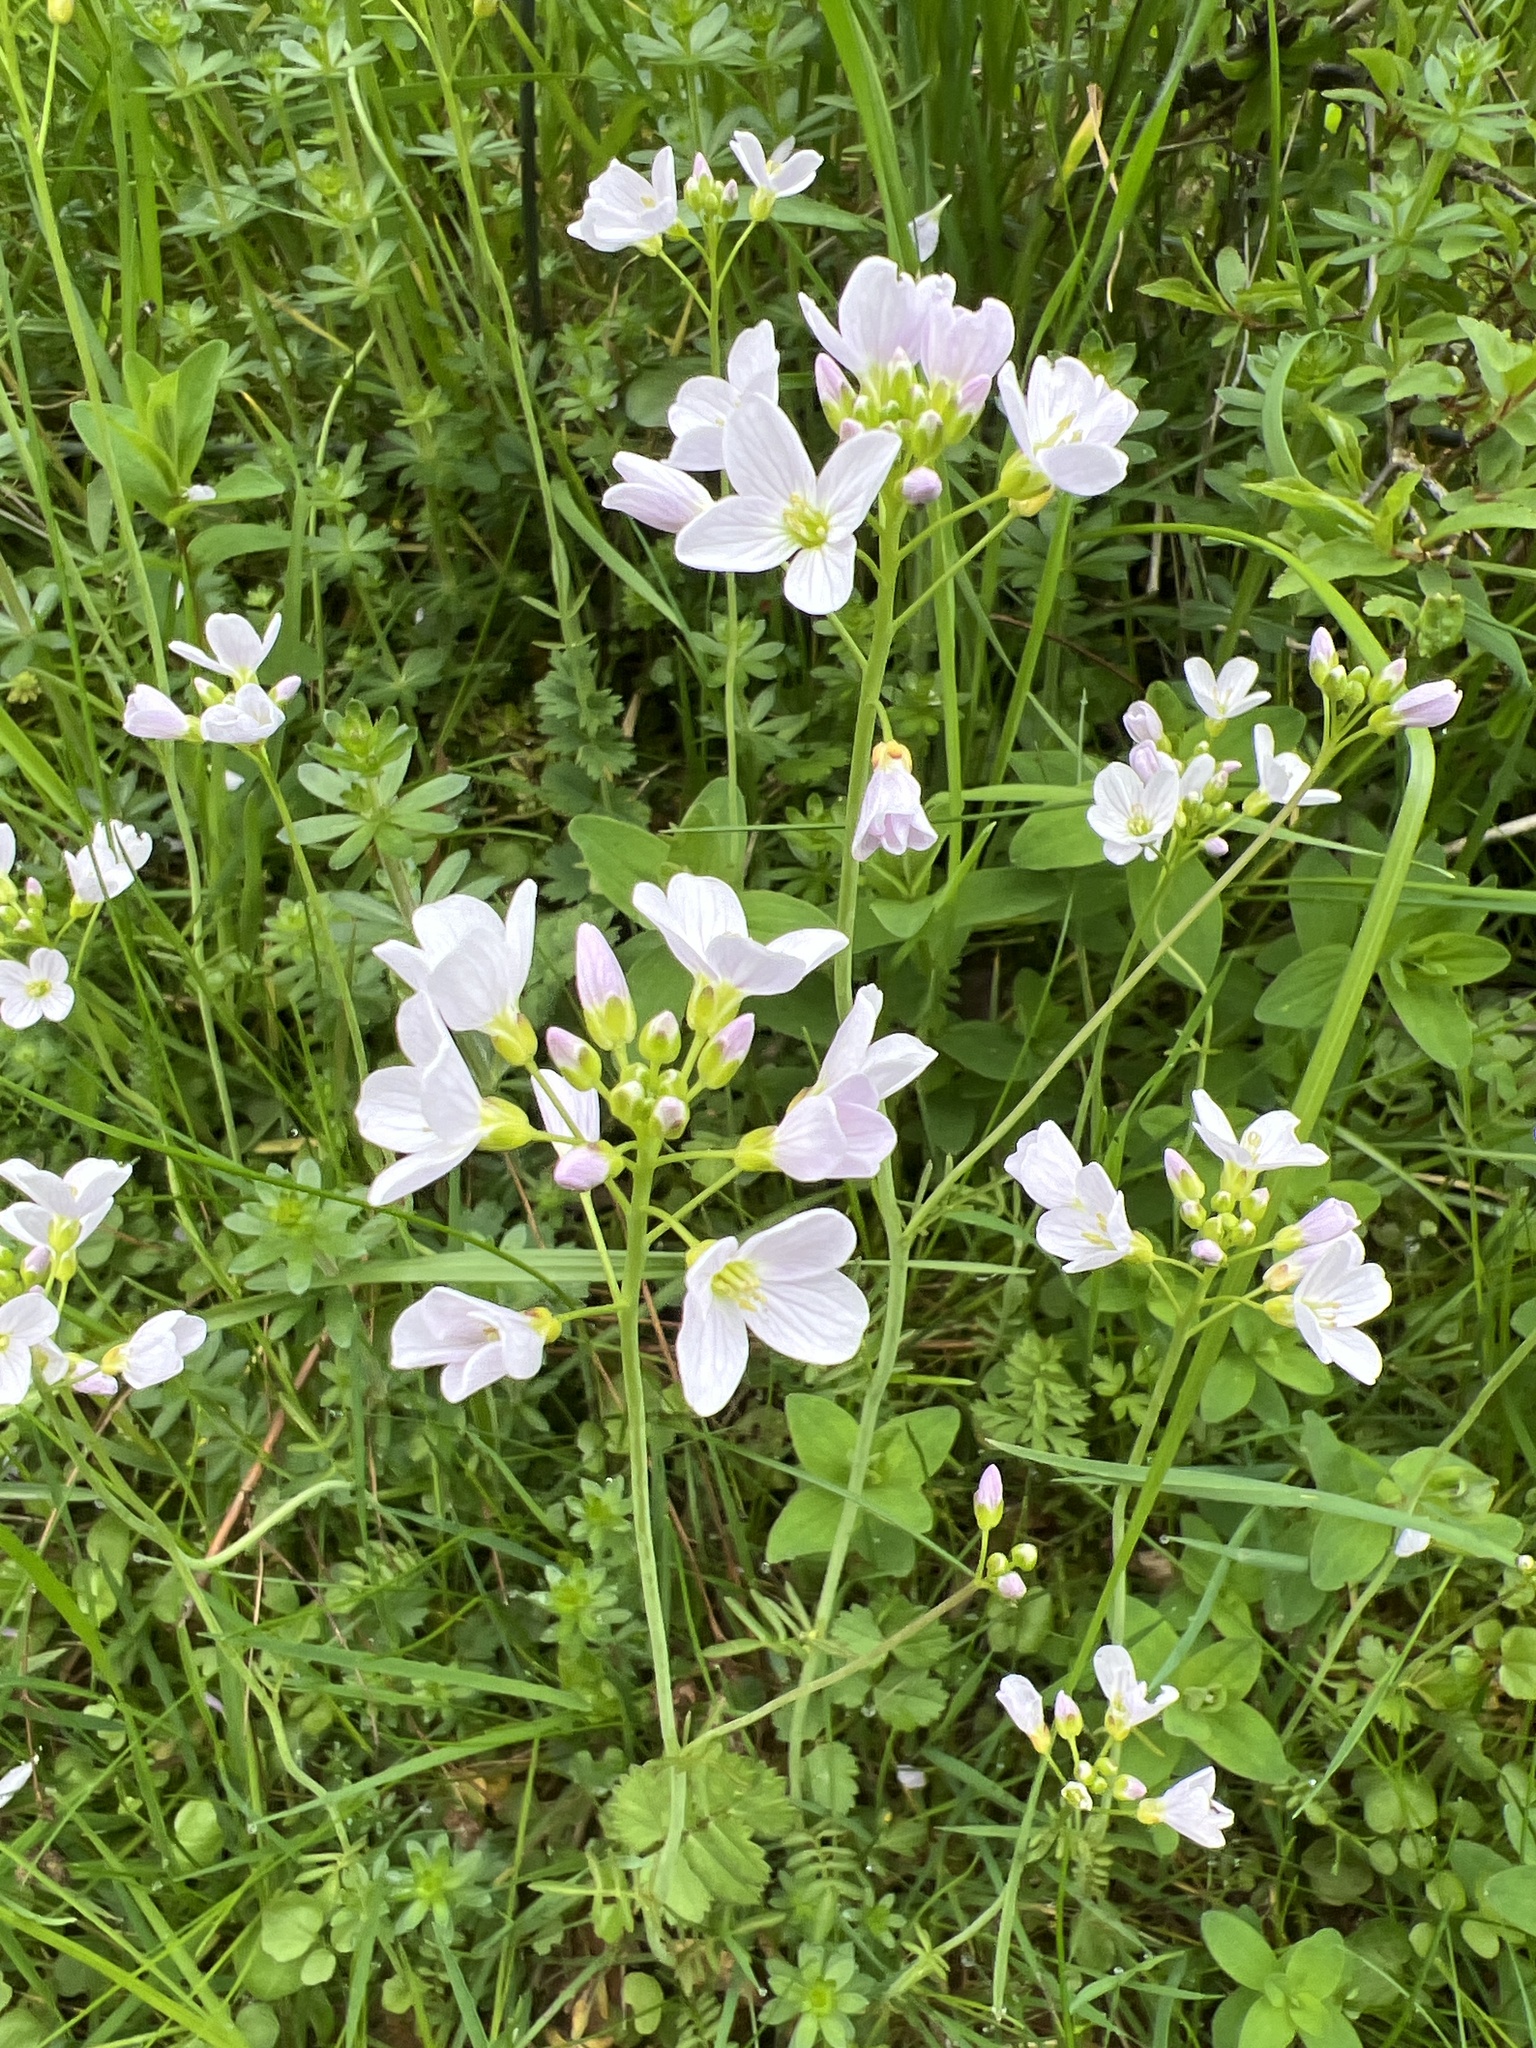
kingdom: Plantae
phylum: Tracheophyta
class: Magnoliopsida
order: Brassicales
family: Brassicaceae
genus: Cardamine
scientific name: Cardamine pratensis
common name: Cuckoo flower
